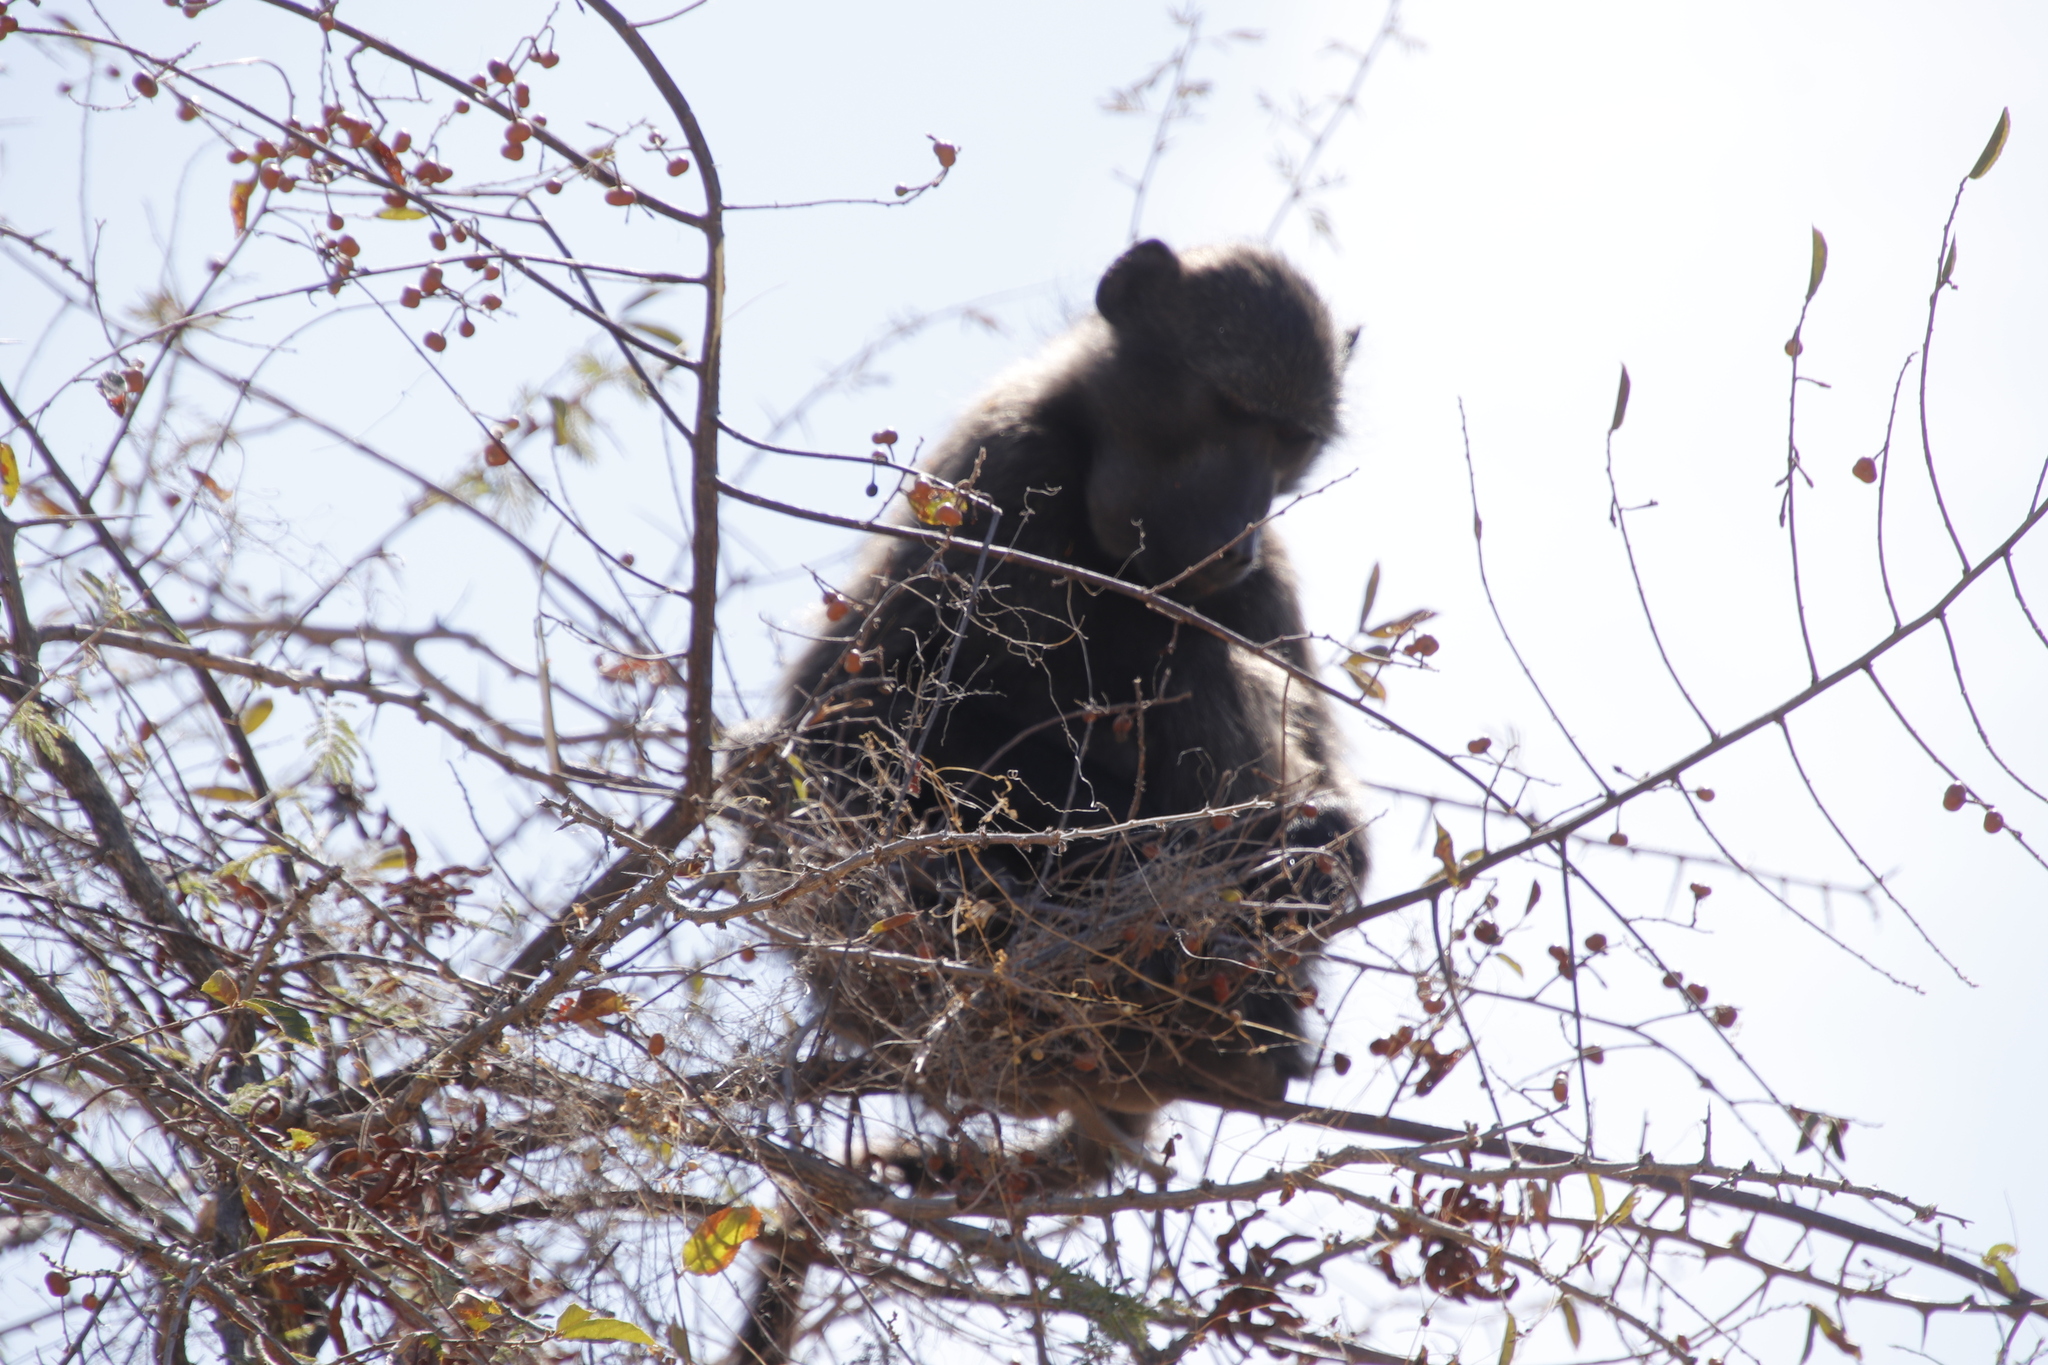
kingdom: Animalia
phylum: Chordata
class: Mammalia
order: Primates
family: Cercopithecidae
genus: Papio
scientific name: Papio ursinus
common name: Chacma baboon
